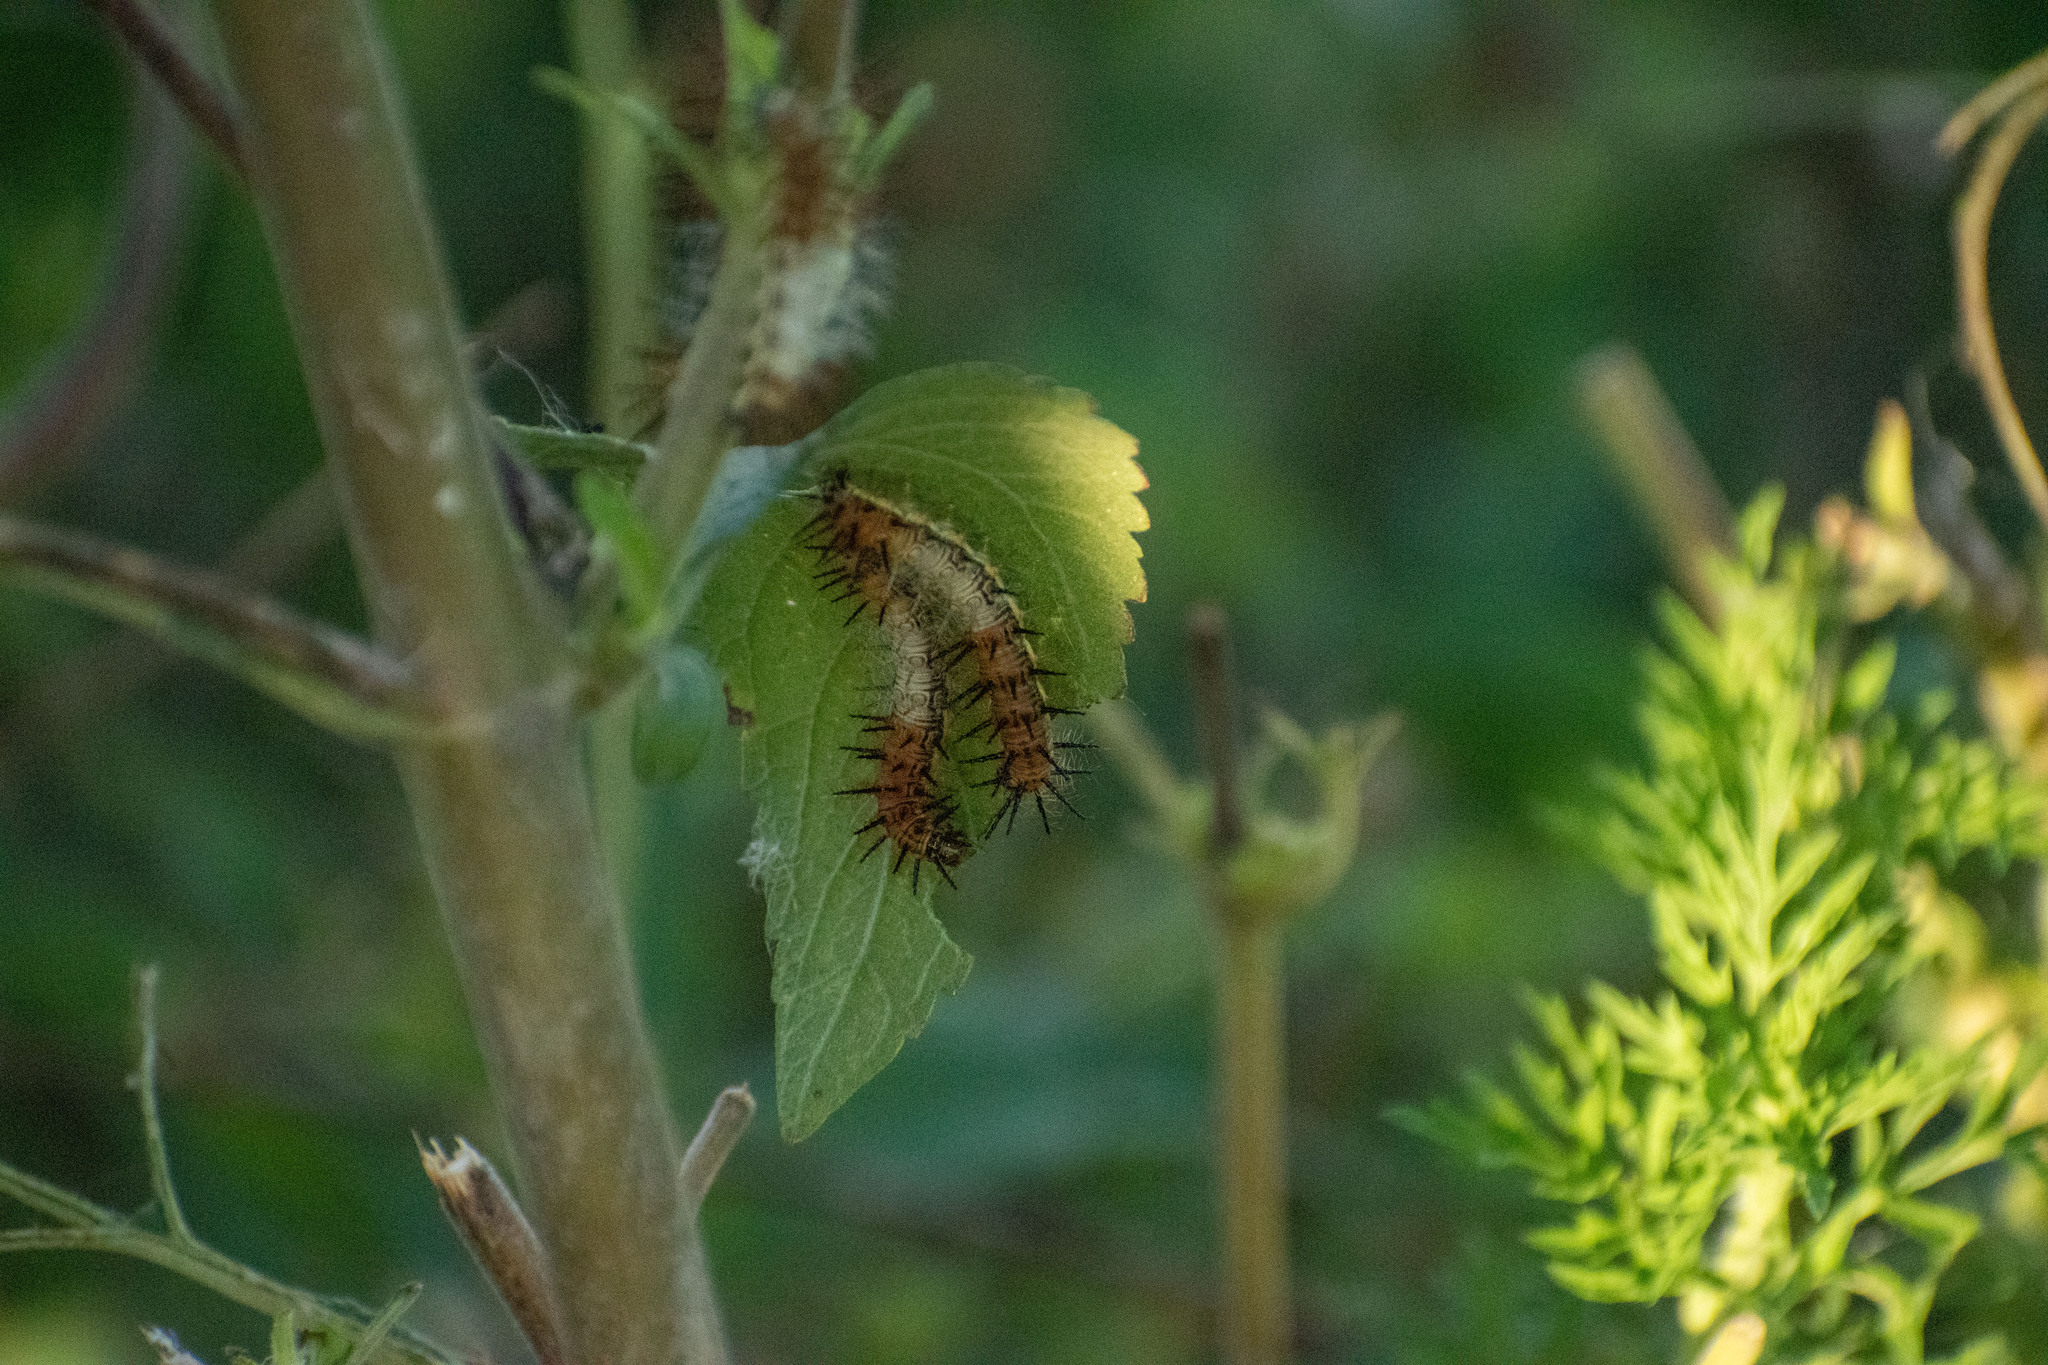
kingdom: Animalia
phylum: Arthropoda
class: Insecta
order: Lepidoptera
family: Nymphalidae
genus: Actinote
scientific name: Actinote pellenea
